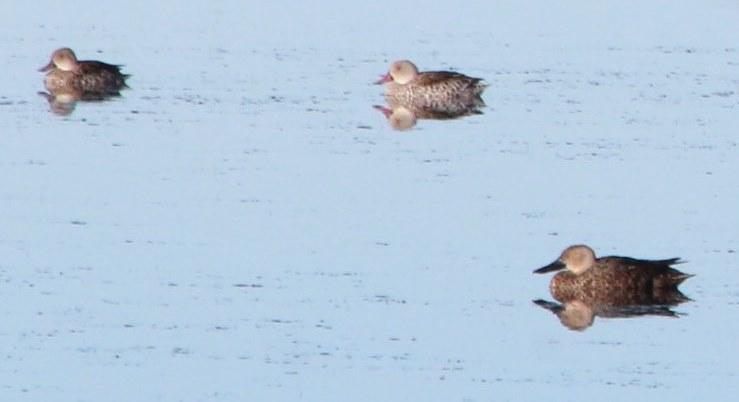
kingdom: Animalia
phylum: Chordata
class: Aves
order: Anseriformes
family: Anatidae
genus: Spatula
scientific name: Spatula smithii
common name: Cape shoveler
